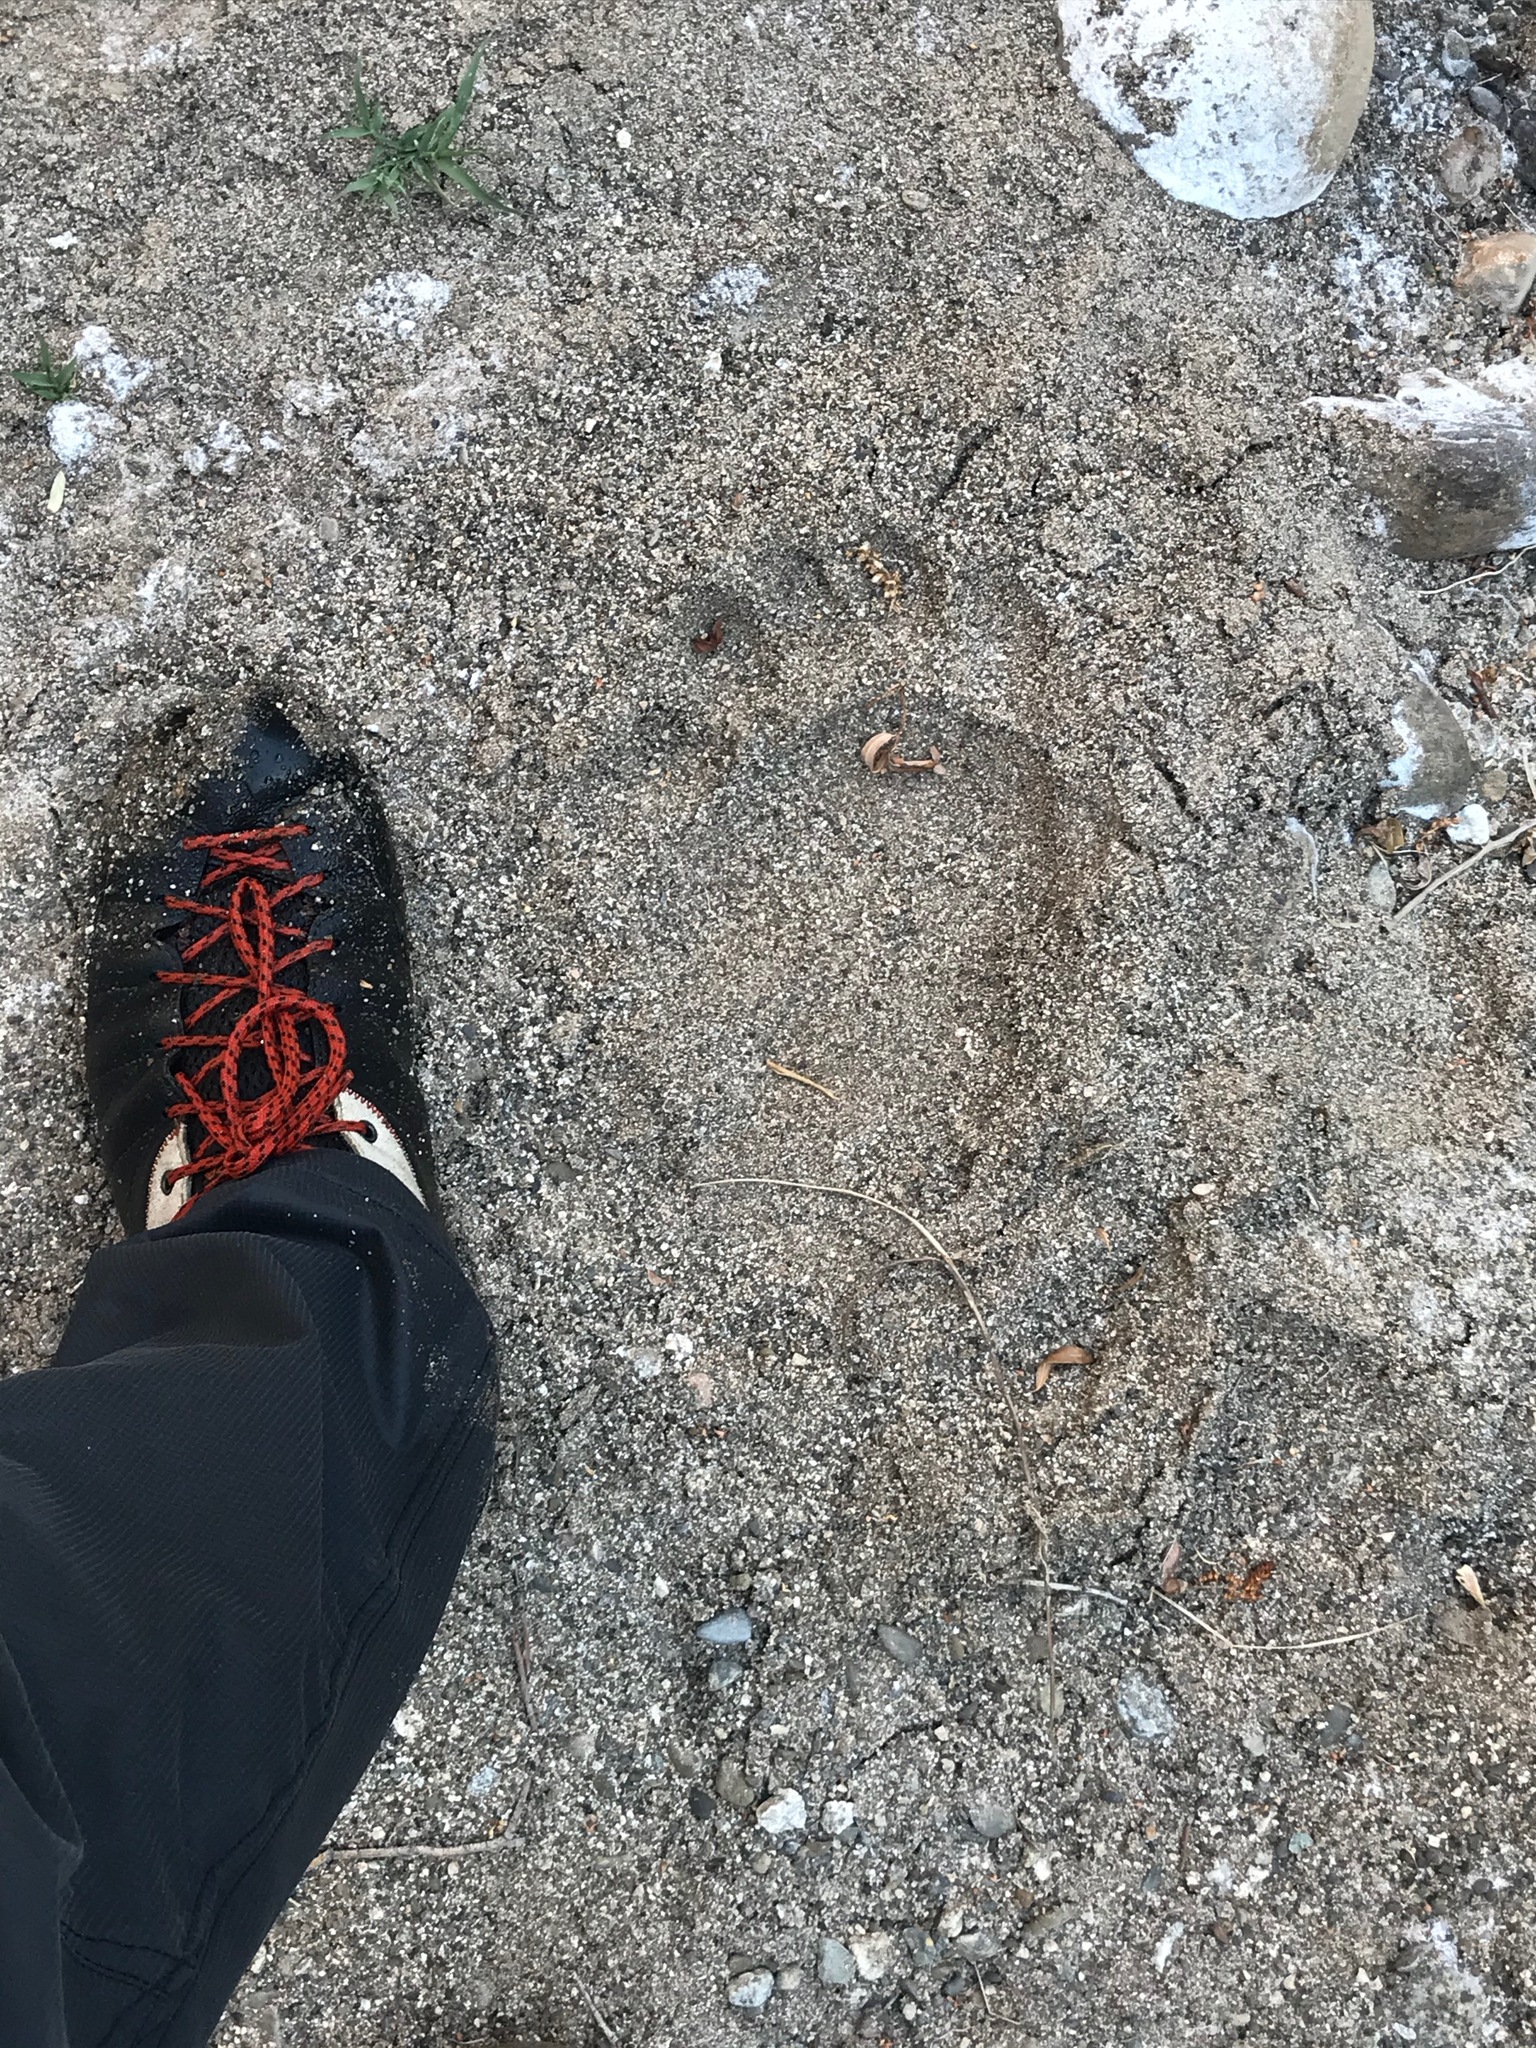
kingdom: Animalia
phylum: Chordata
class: Mammalia
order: Carnivora
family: Ursidae
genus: Ursus
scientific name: Ursus americanus
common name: American black bear
